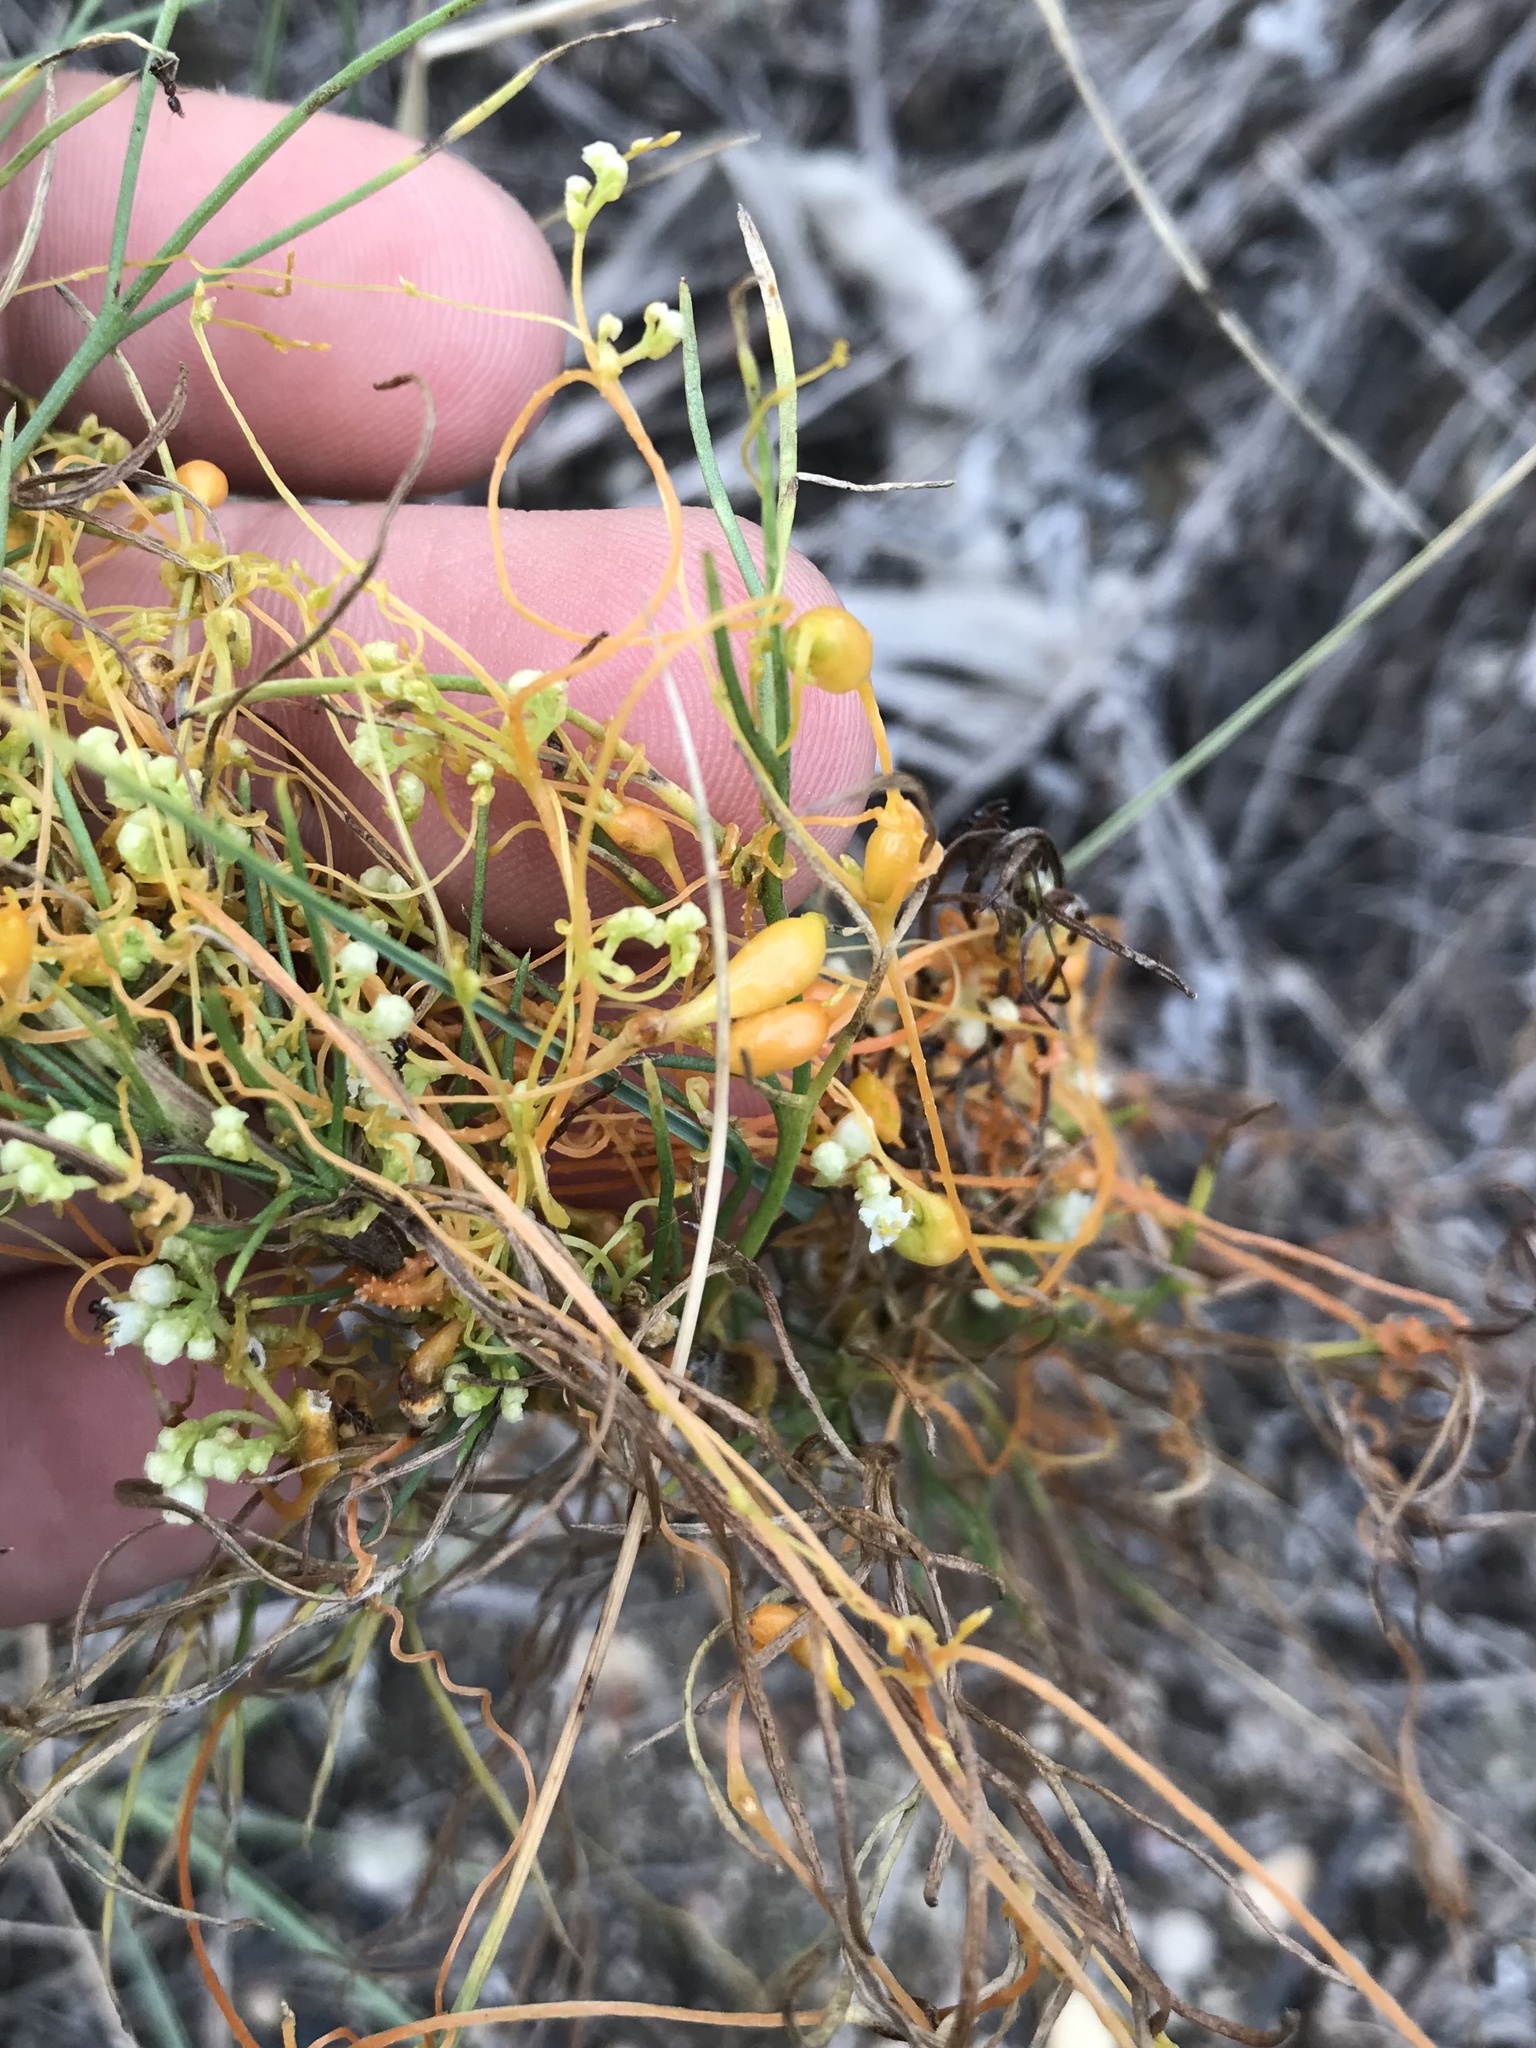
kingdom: Animalia
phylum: Arthropoda
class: Insecta
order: Coleoptera
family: Curculionidae
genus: Smicronyx
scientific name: Smicronyx sculpticollis
